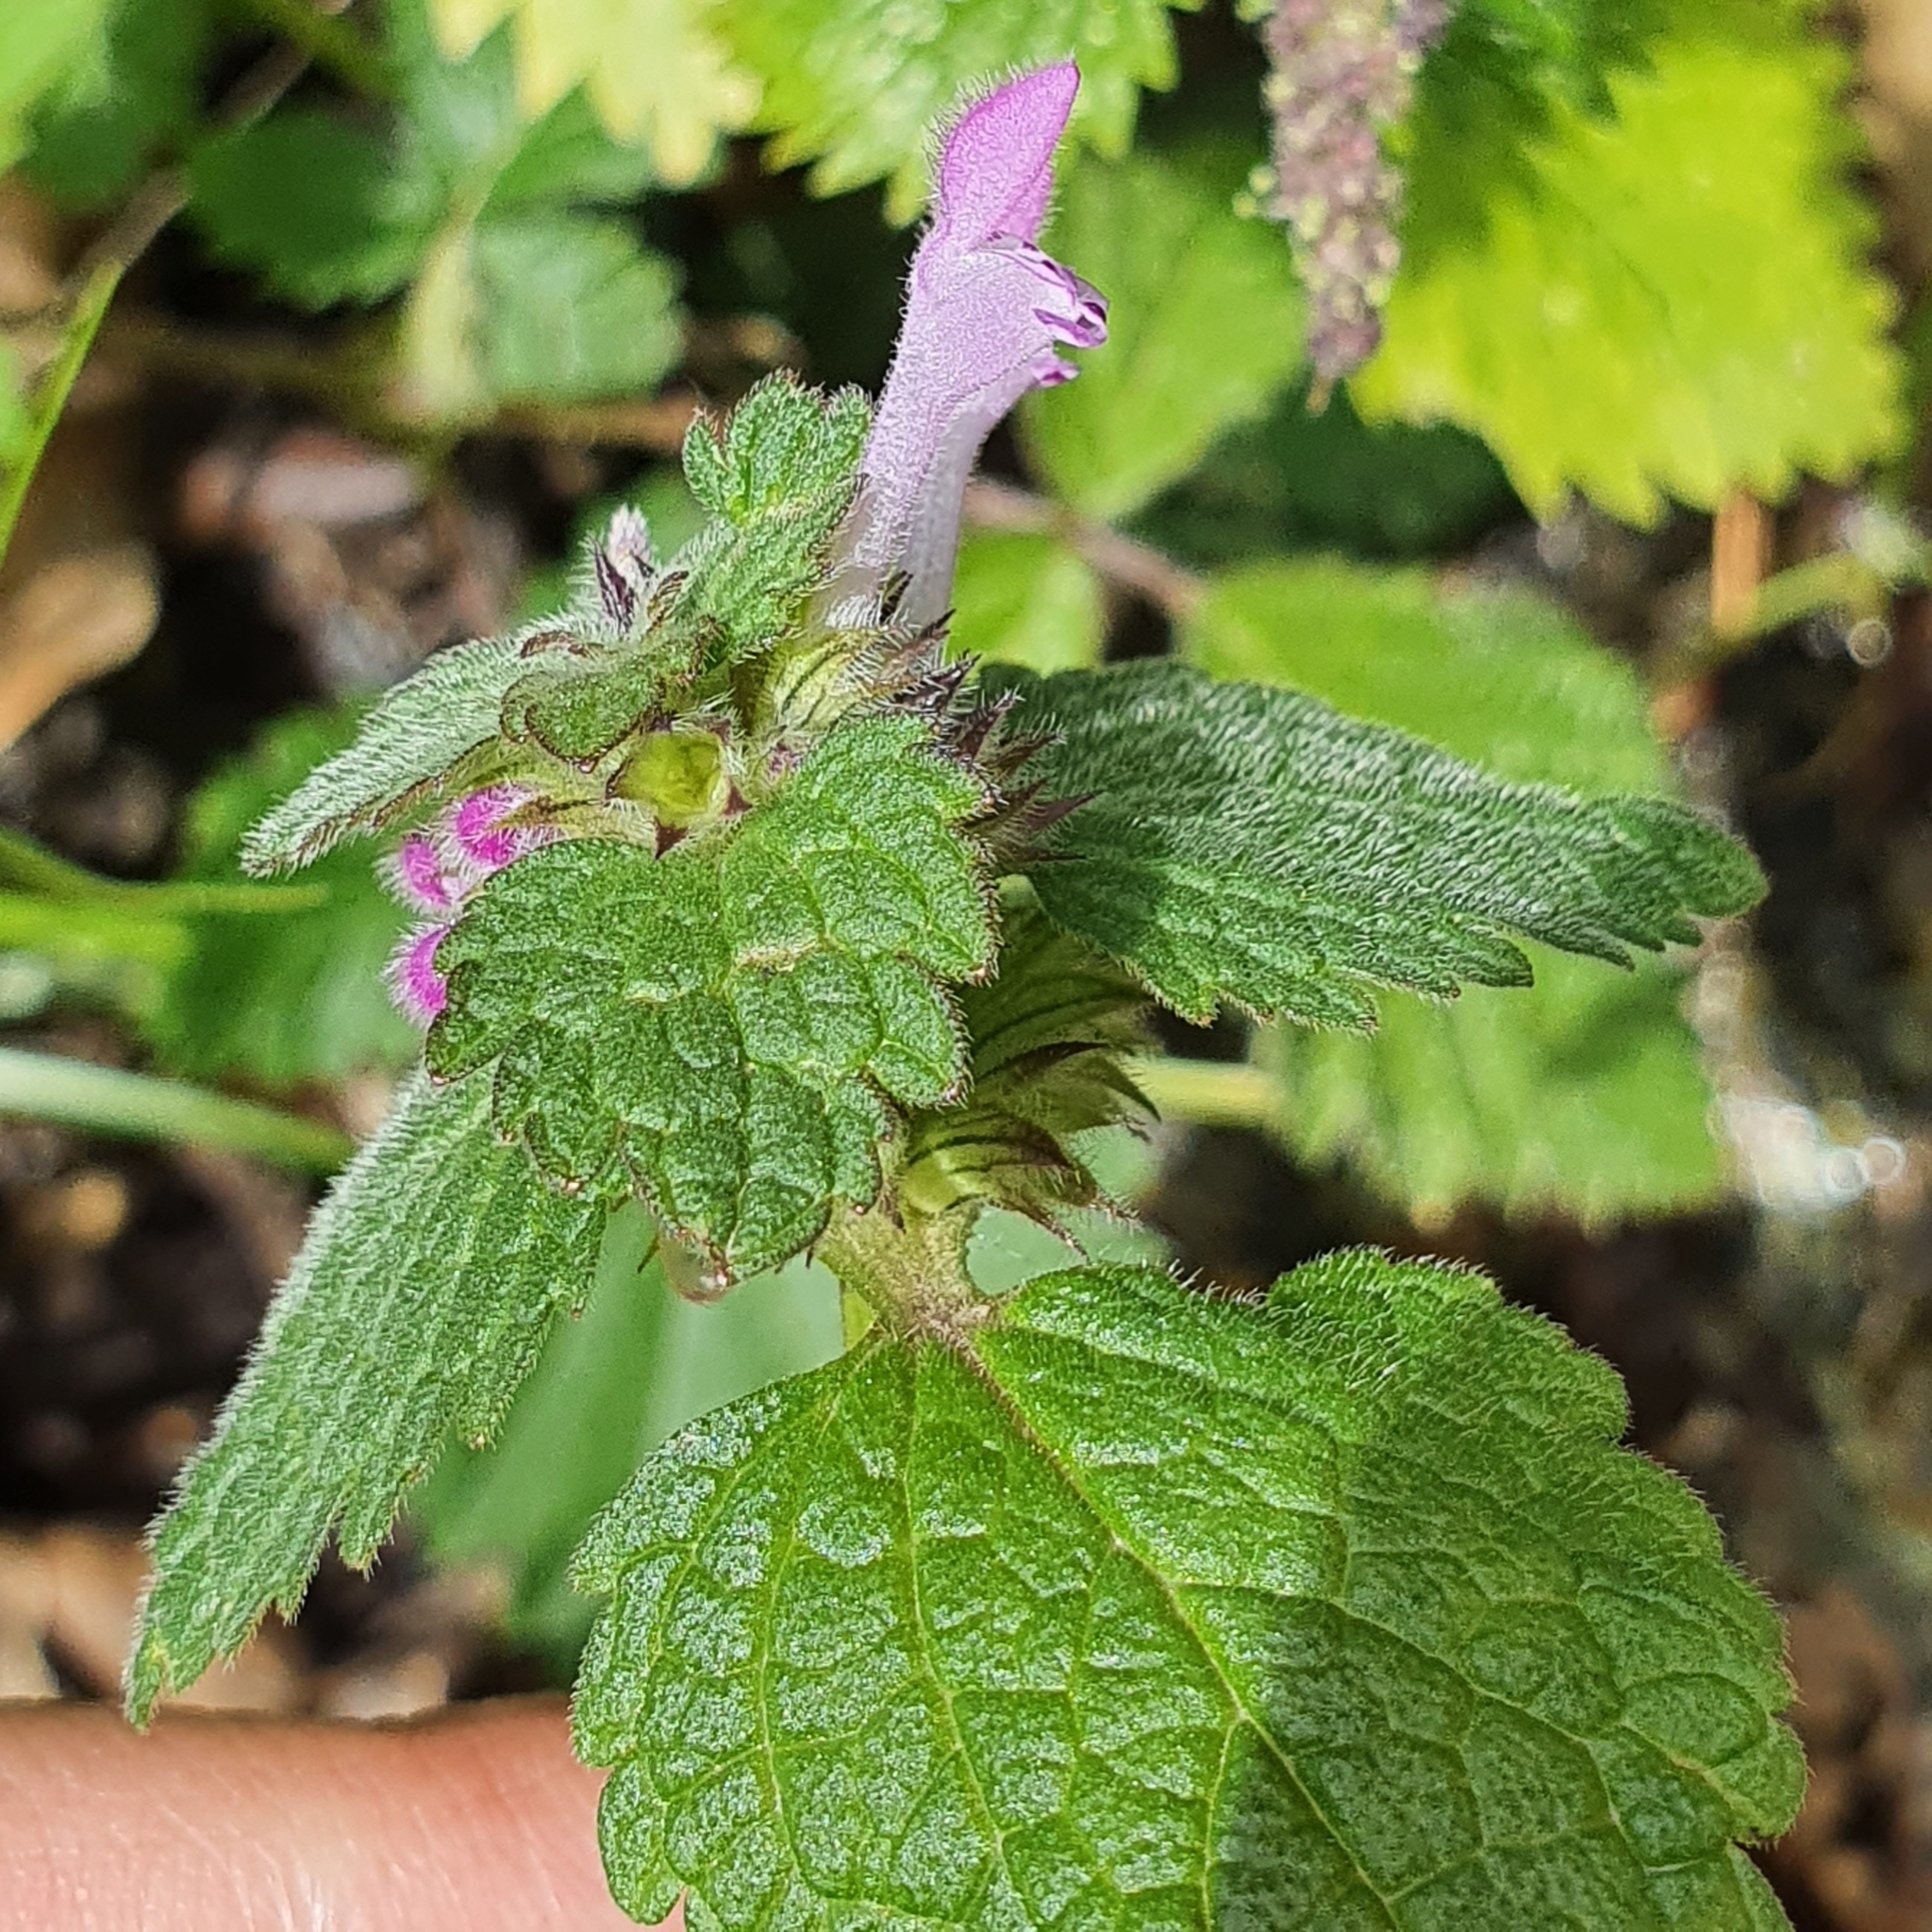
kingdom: Plantae
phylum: Tracheophyta
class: Magnoliopsida
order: Lamiales
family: Lamiaceae
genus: Lamium
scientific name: Lamium amplexicaule
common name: Henbit dead-nettle
